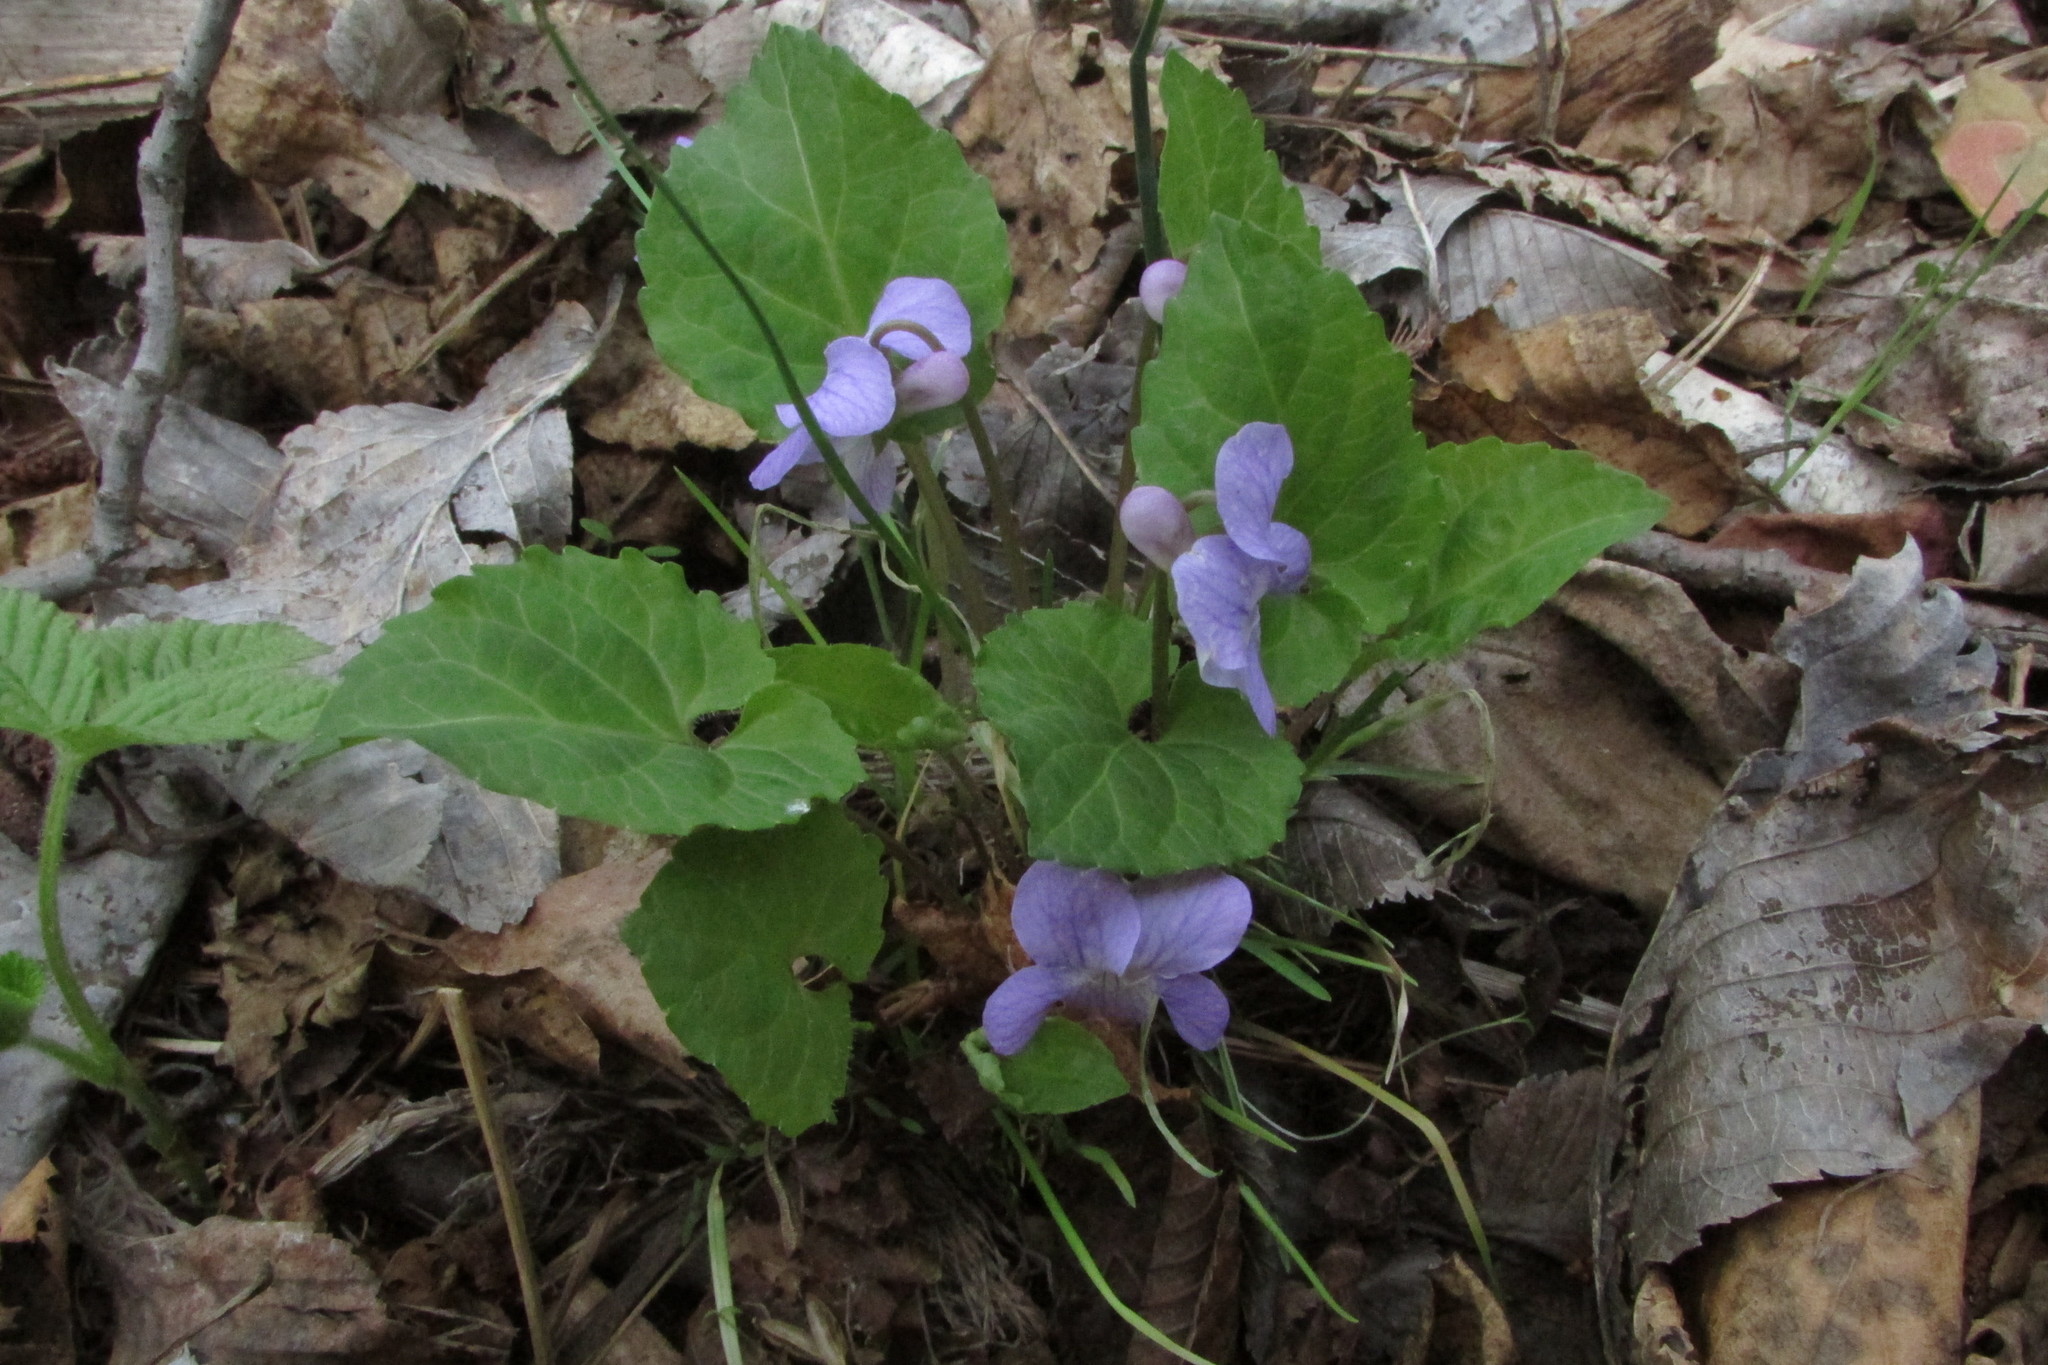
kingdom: Plantae
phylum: Tracheophyta
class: Magnoliopsida
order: Malpighiales
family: Violaceae
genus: Viola
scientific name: Viola selkirkii
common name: Selkirk's violet
